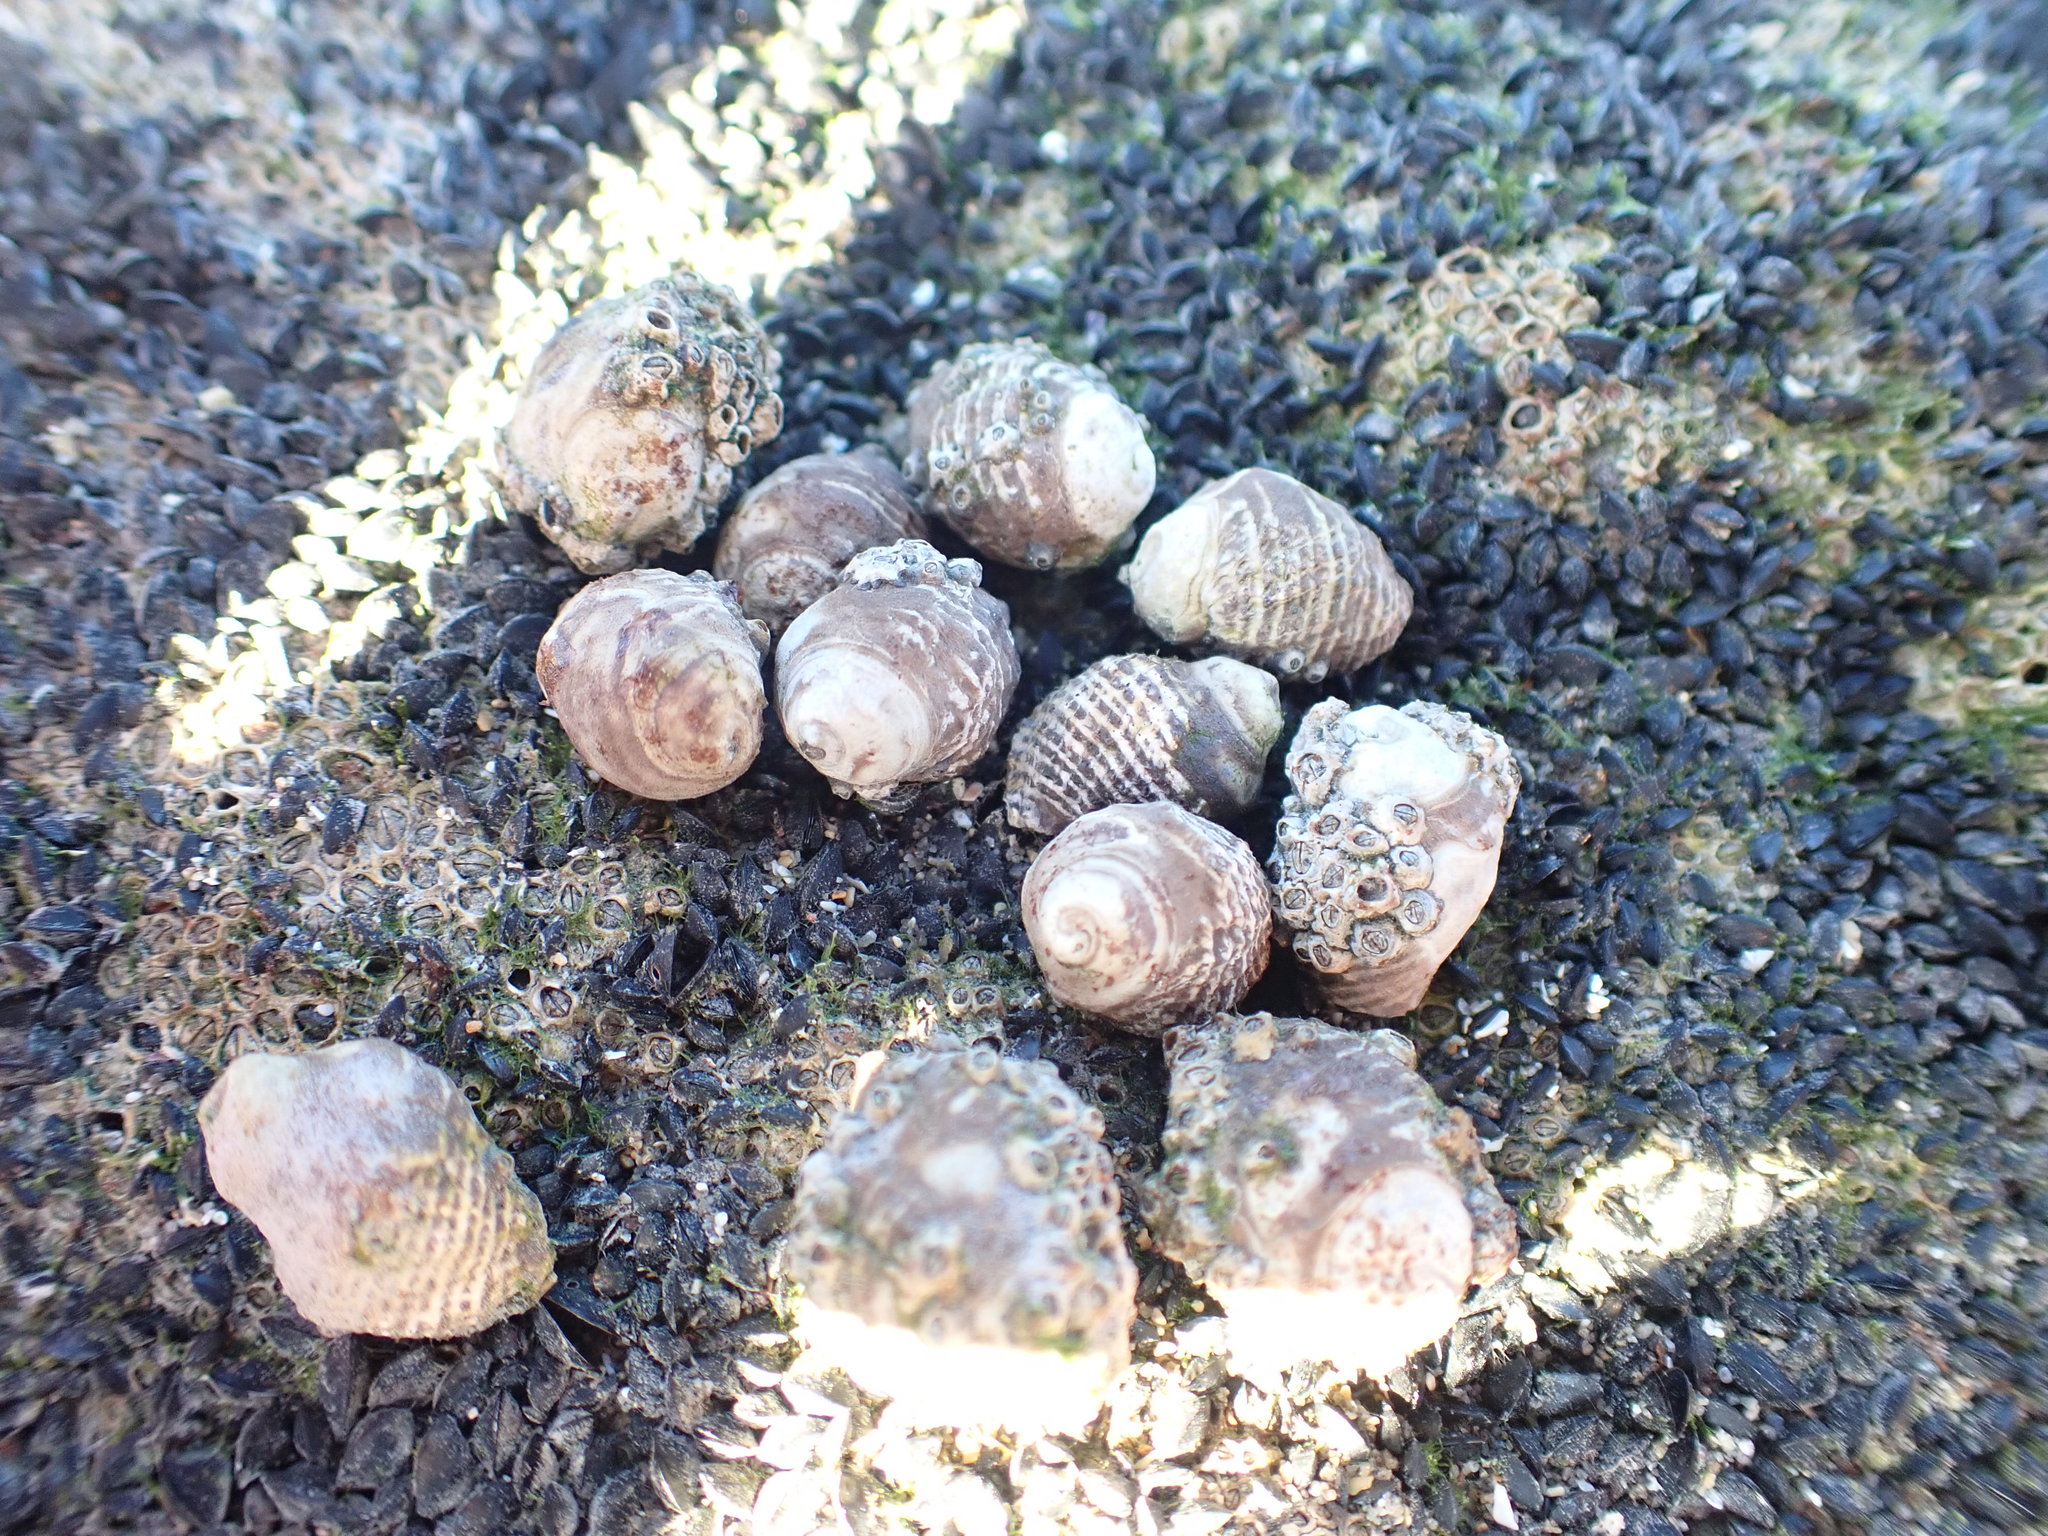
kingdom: Animalia
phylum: Mollusca
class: Gastropoda
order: Neogastropoda
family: Muricidae
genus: Haustrum
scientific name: Haustrum
